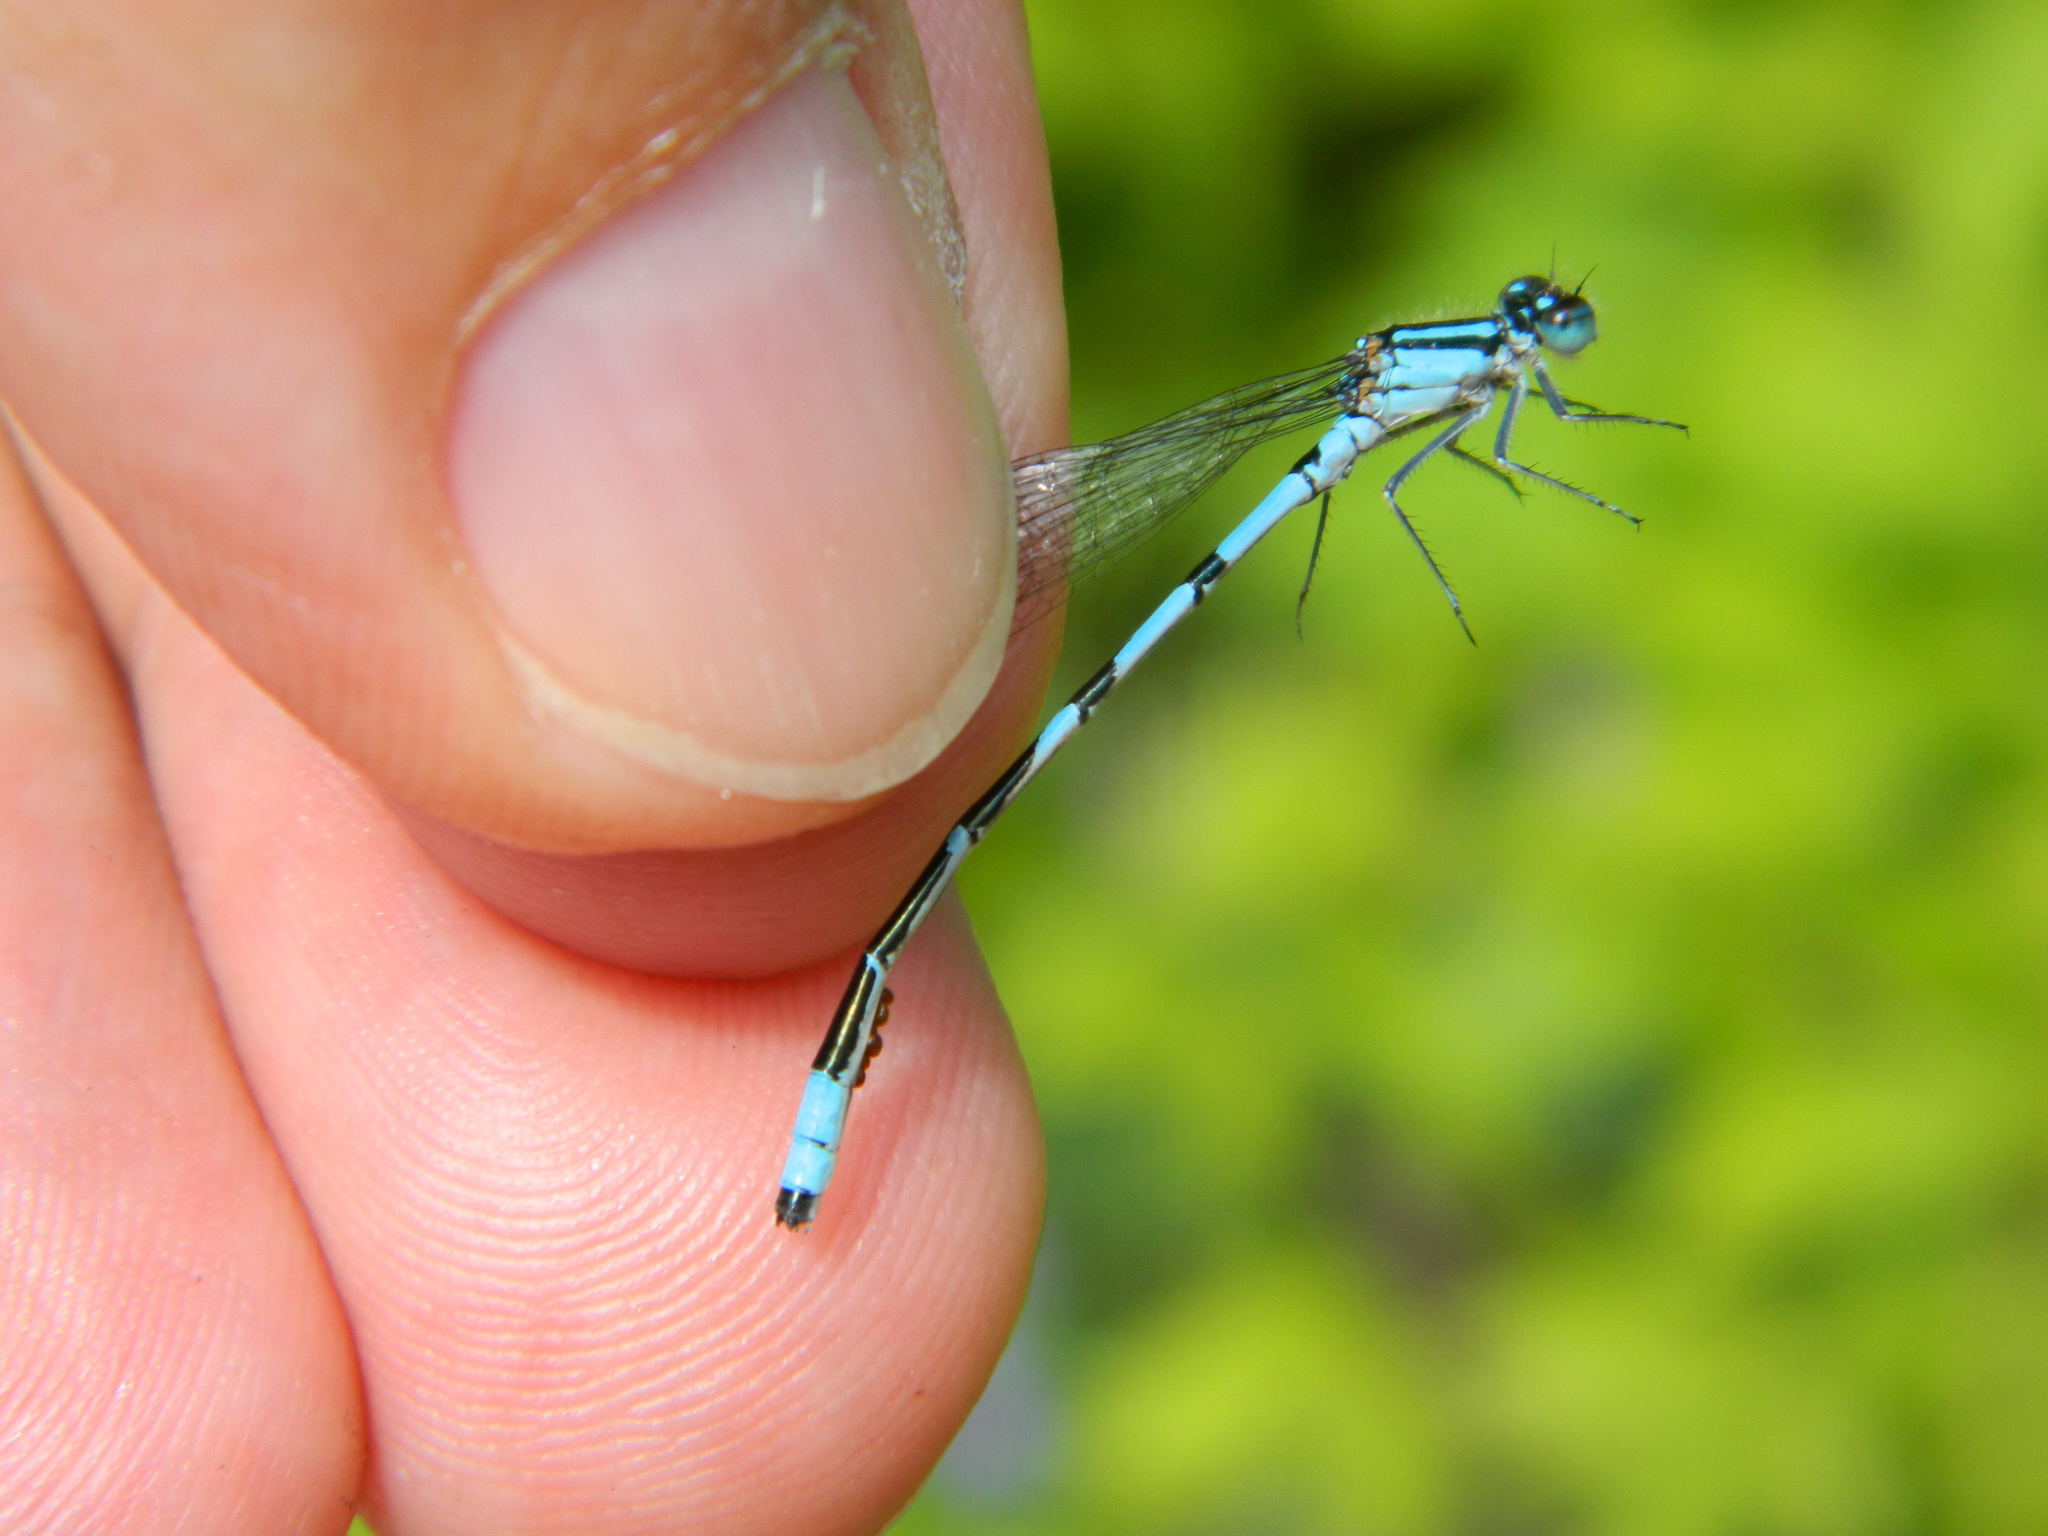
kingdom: Animalia
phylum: Arthropoda
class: Insecta
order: Odonata
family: Coenagrionidae
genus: Enallagma
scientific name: Enallagma ebrium
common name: Marsh bluet
